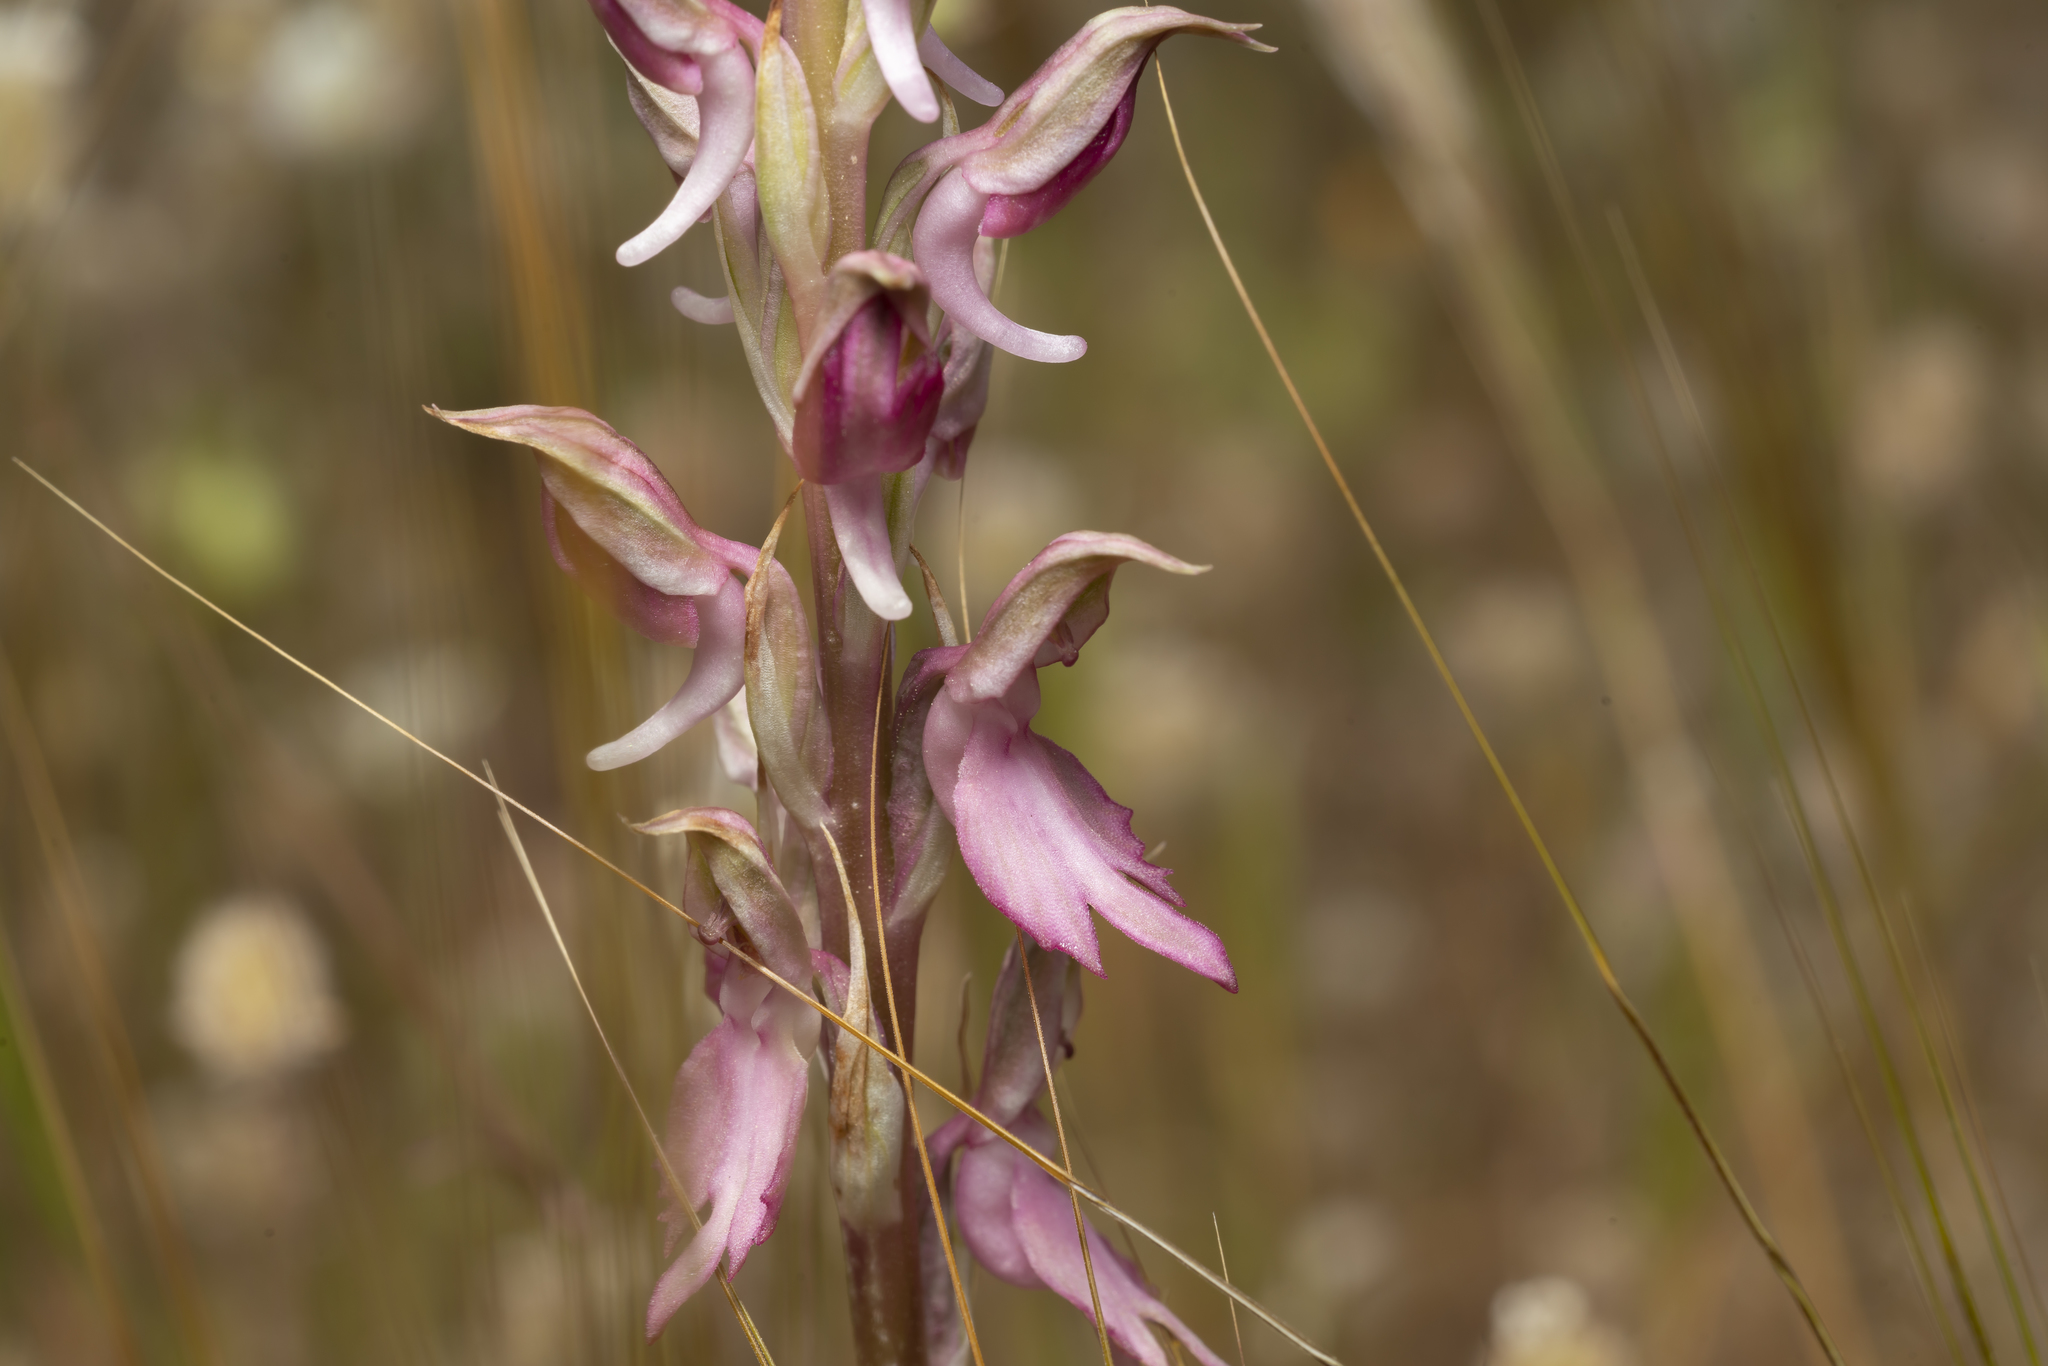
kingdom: Plantae
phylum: Tracheophyta
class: Liliopsida
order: Asparagales
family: Orchidaceae
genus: Anacamptis
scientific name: Anacamptis sancta
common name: Holy orchid
